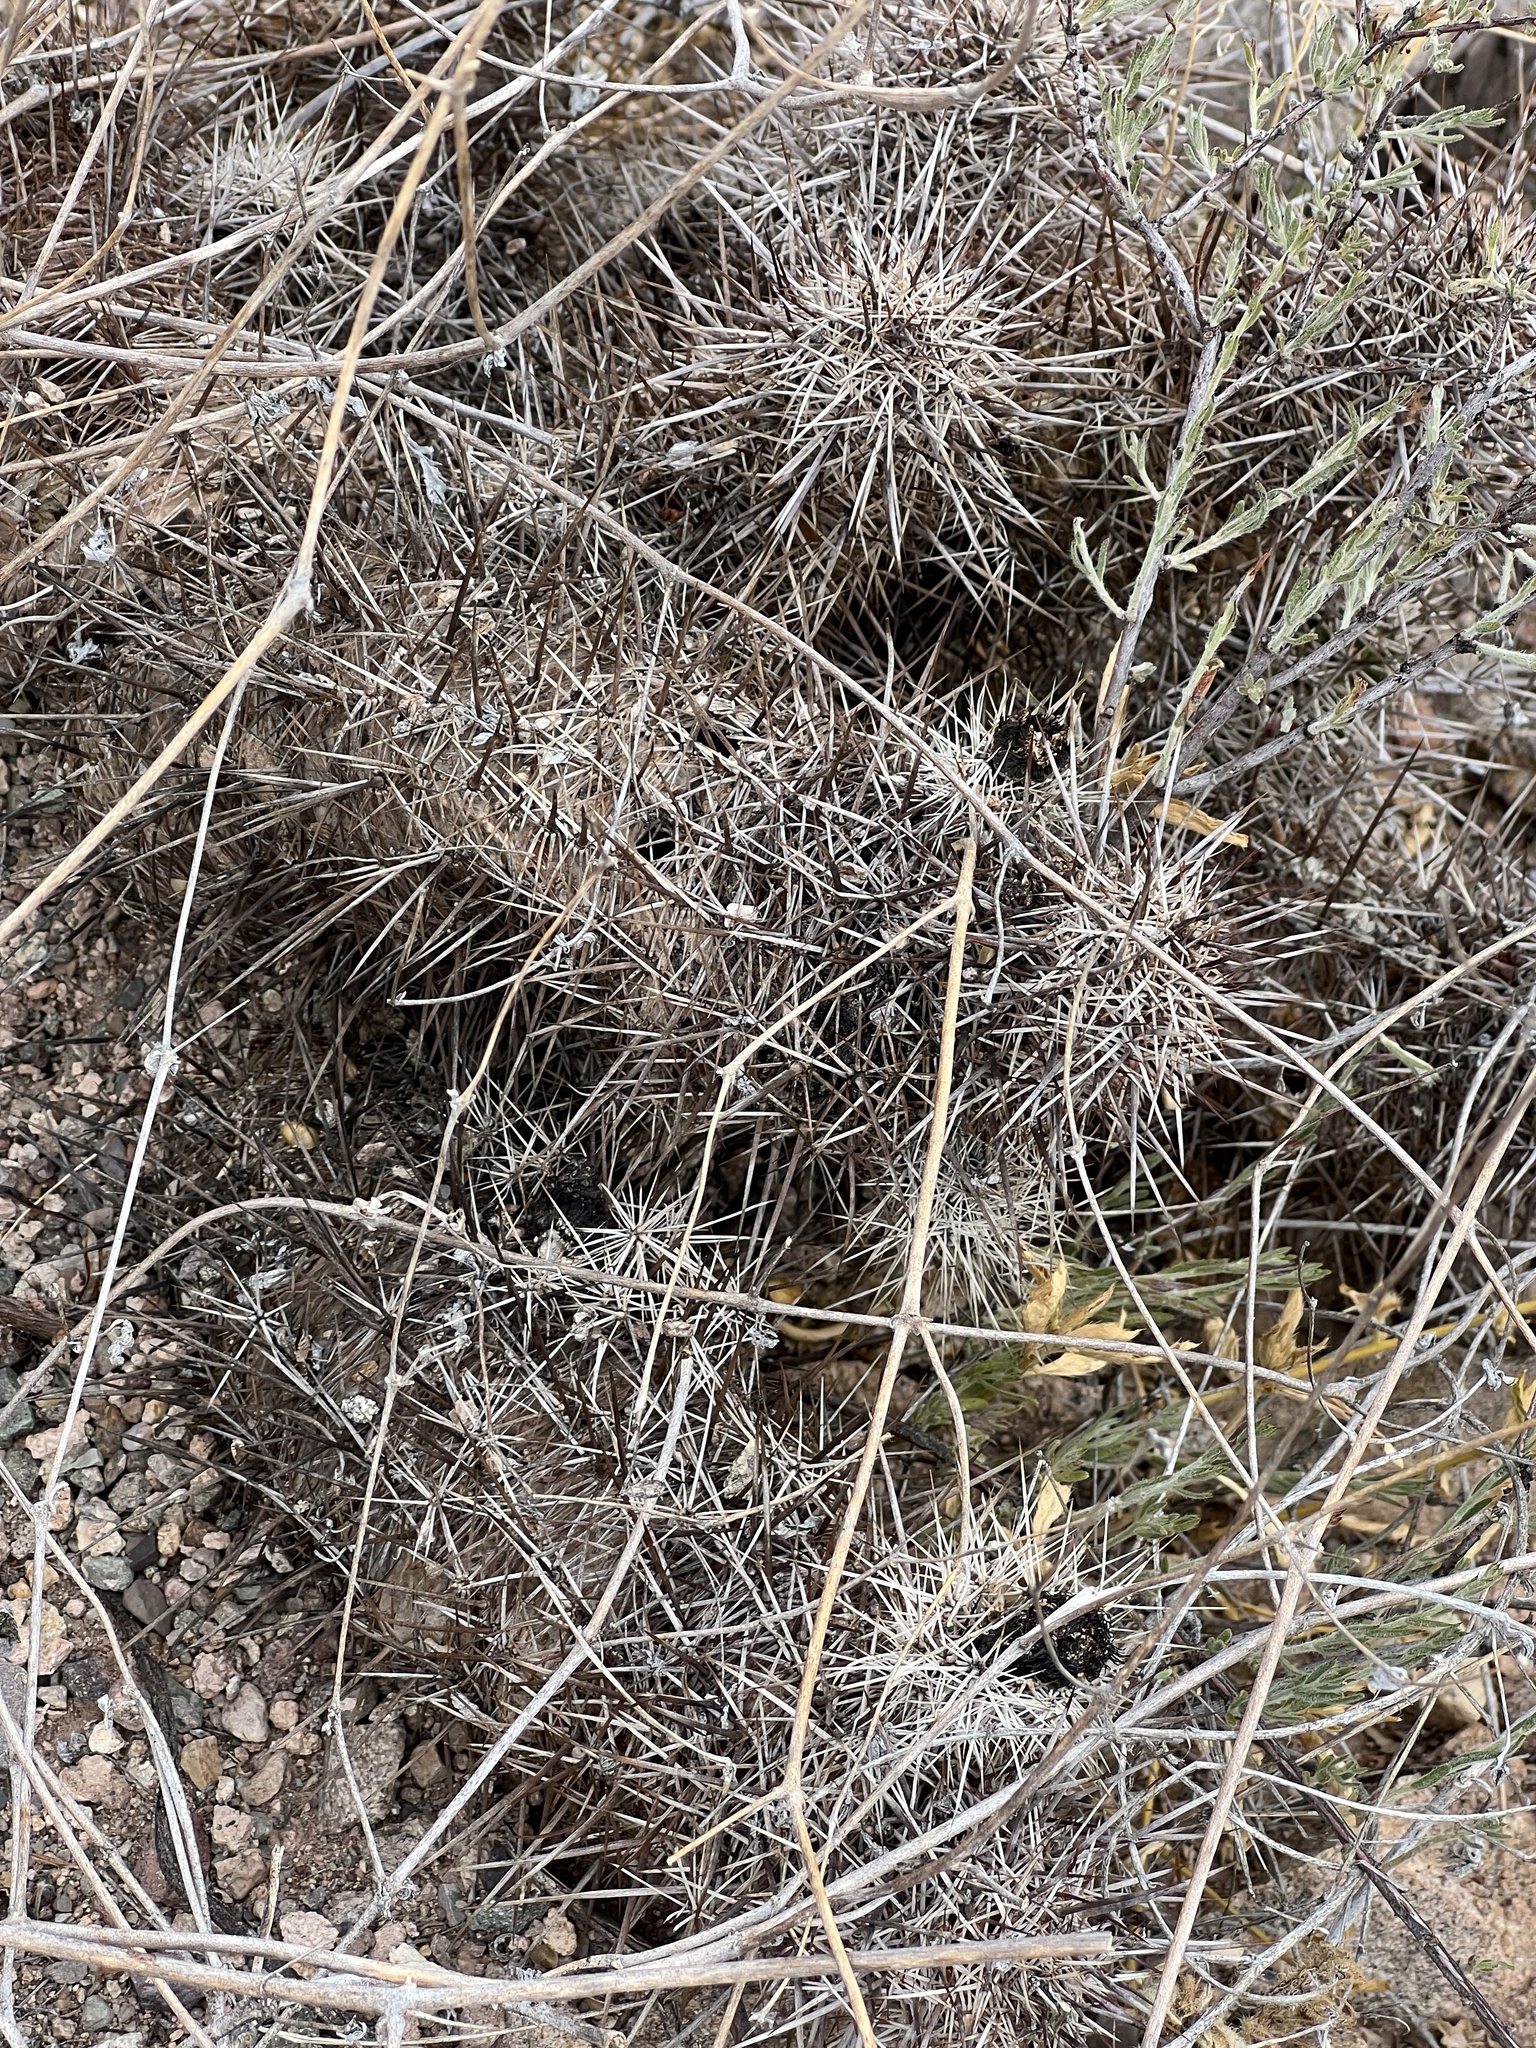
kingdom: Plantae
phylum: Tracheophyta
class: Magnoliopsida
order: Caryophyllales
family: Cactaceae
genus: Echinocereus
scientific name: Echinocereus fasciculatus
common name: Bundle hedgehog
